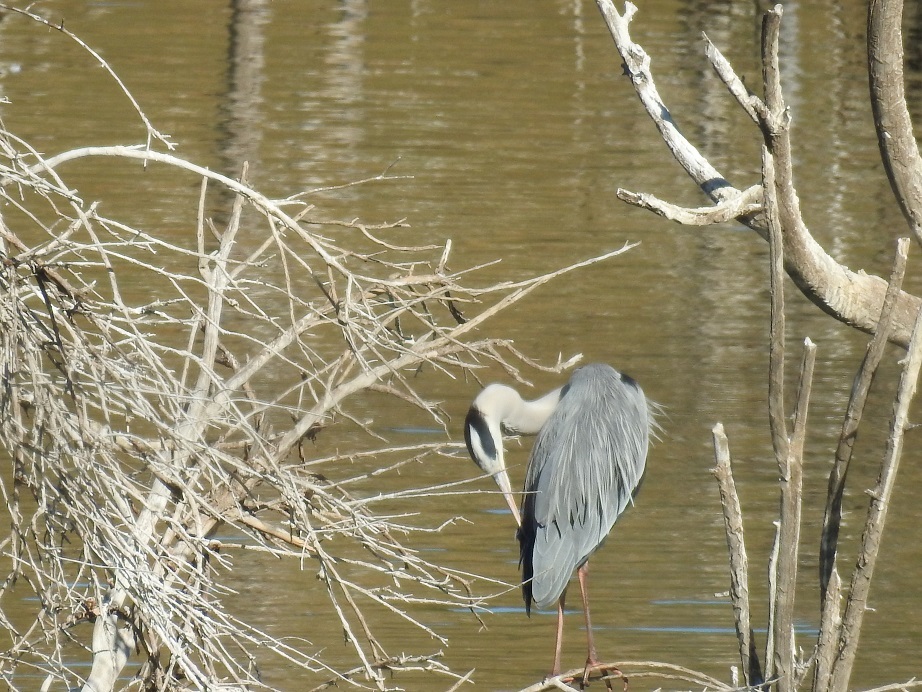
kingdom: Animalia
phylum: Chordata
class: Aves
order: Pelecaniformes
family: Ardeidae
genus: Ardea
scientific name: Ardea cinerea
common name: Grey heron
